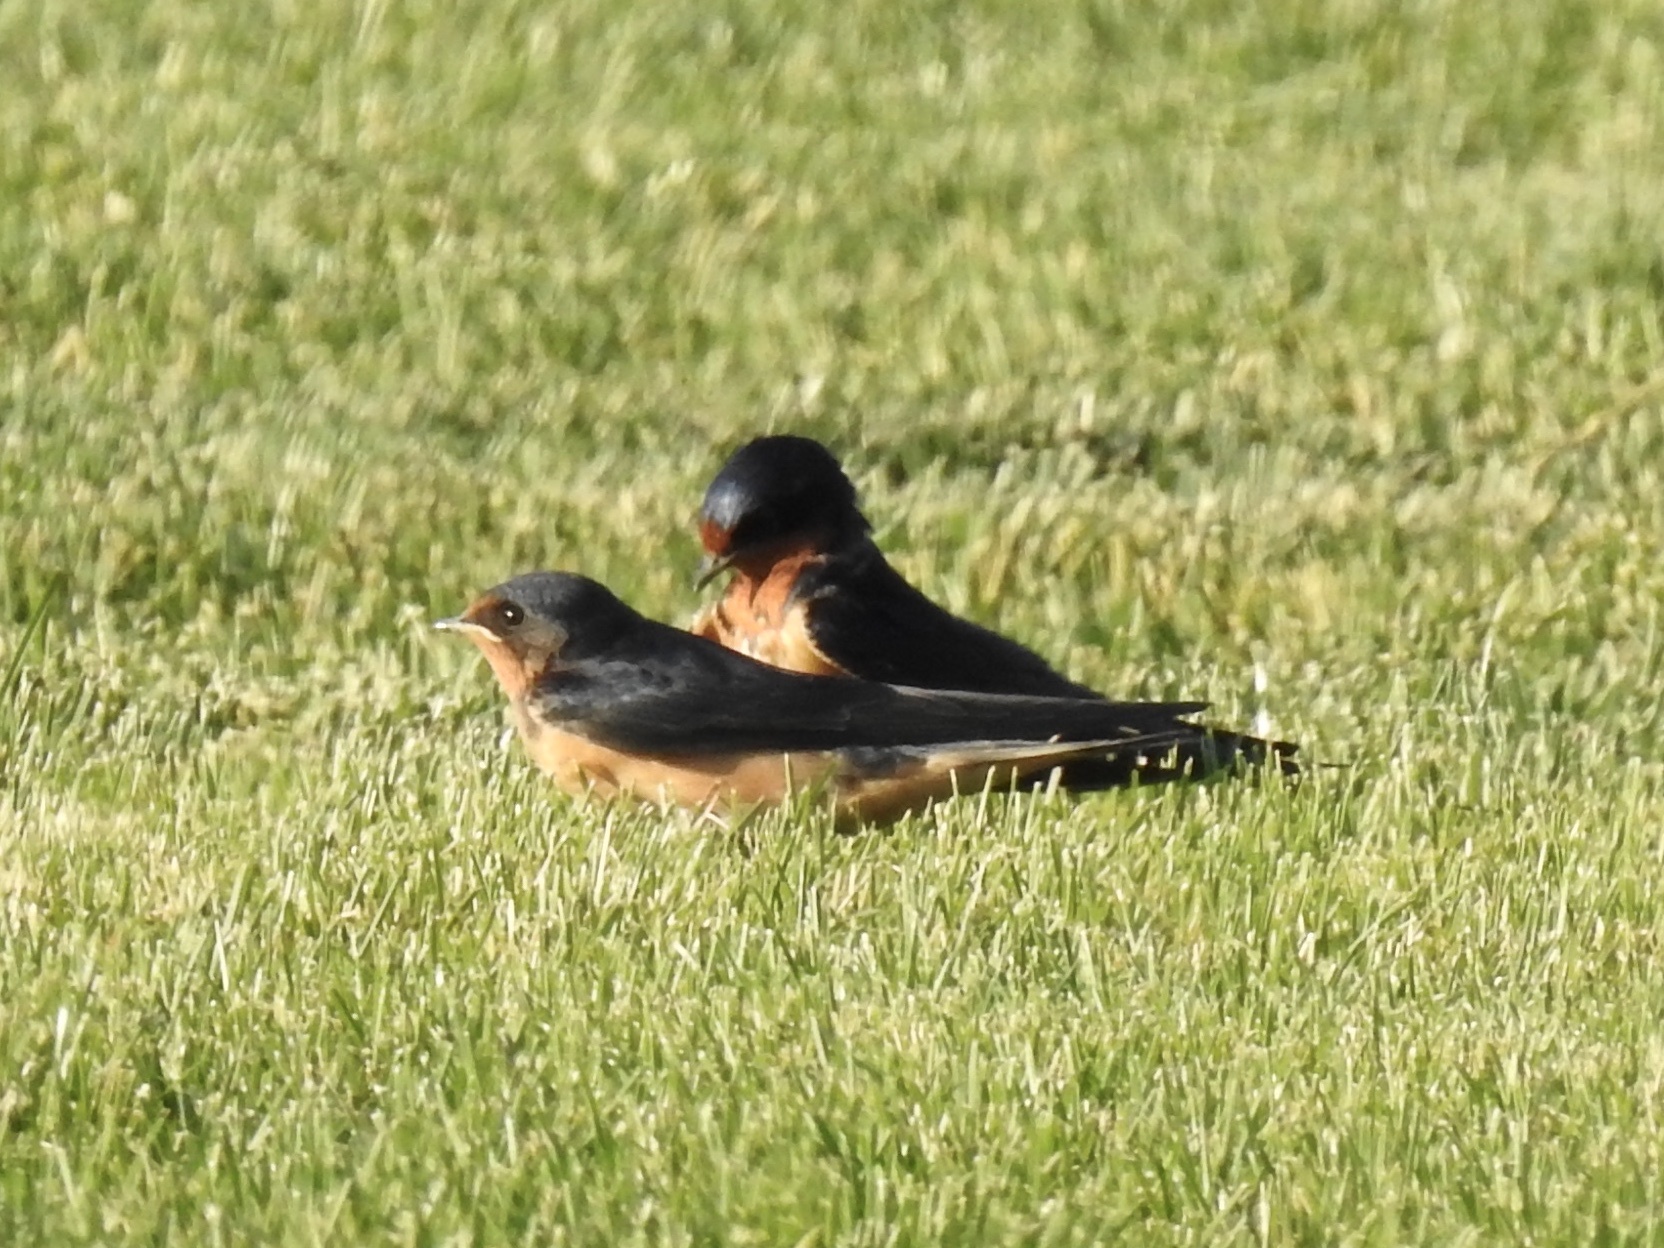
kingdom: Animalia
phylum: Chordata
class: Aves
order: Passeriformes
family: Hirundinidae
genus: Hirundo
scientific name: Hirundo rustica
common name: Barn swallow
